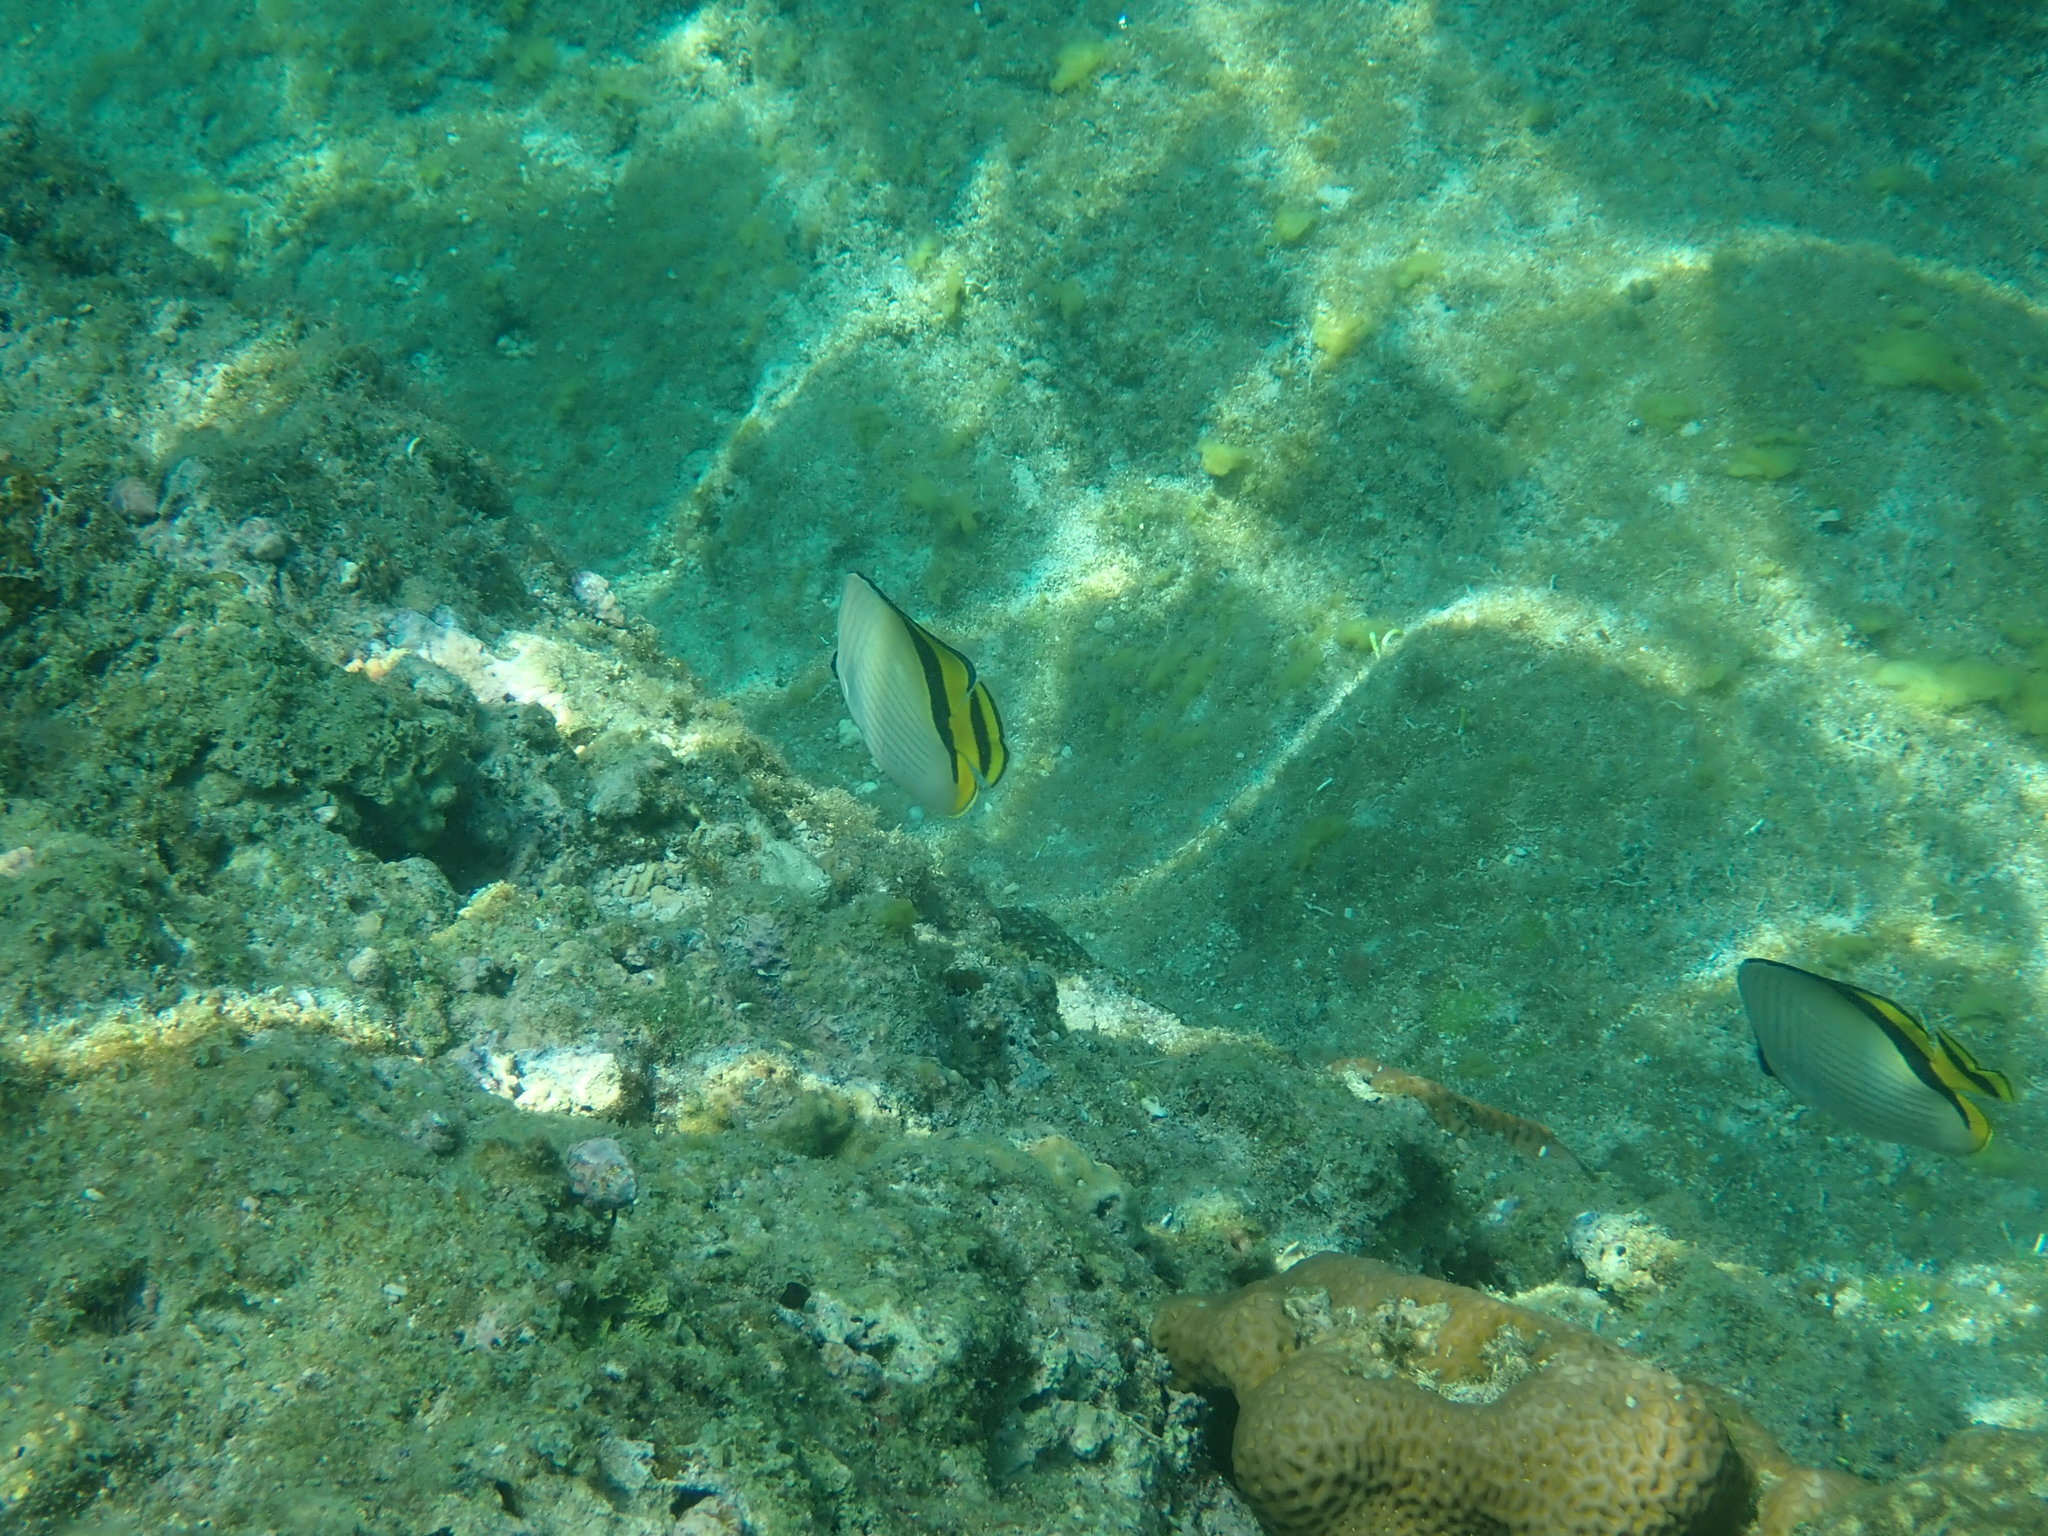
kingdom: Animalia
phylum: Chordata
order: Perciformes
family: Chaetodontidae
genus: Chaetodon
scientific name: Chaetodon vagabundus
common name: Vagabond butterflyfish
